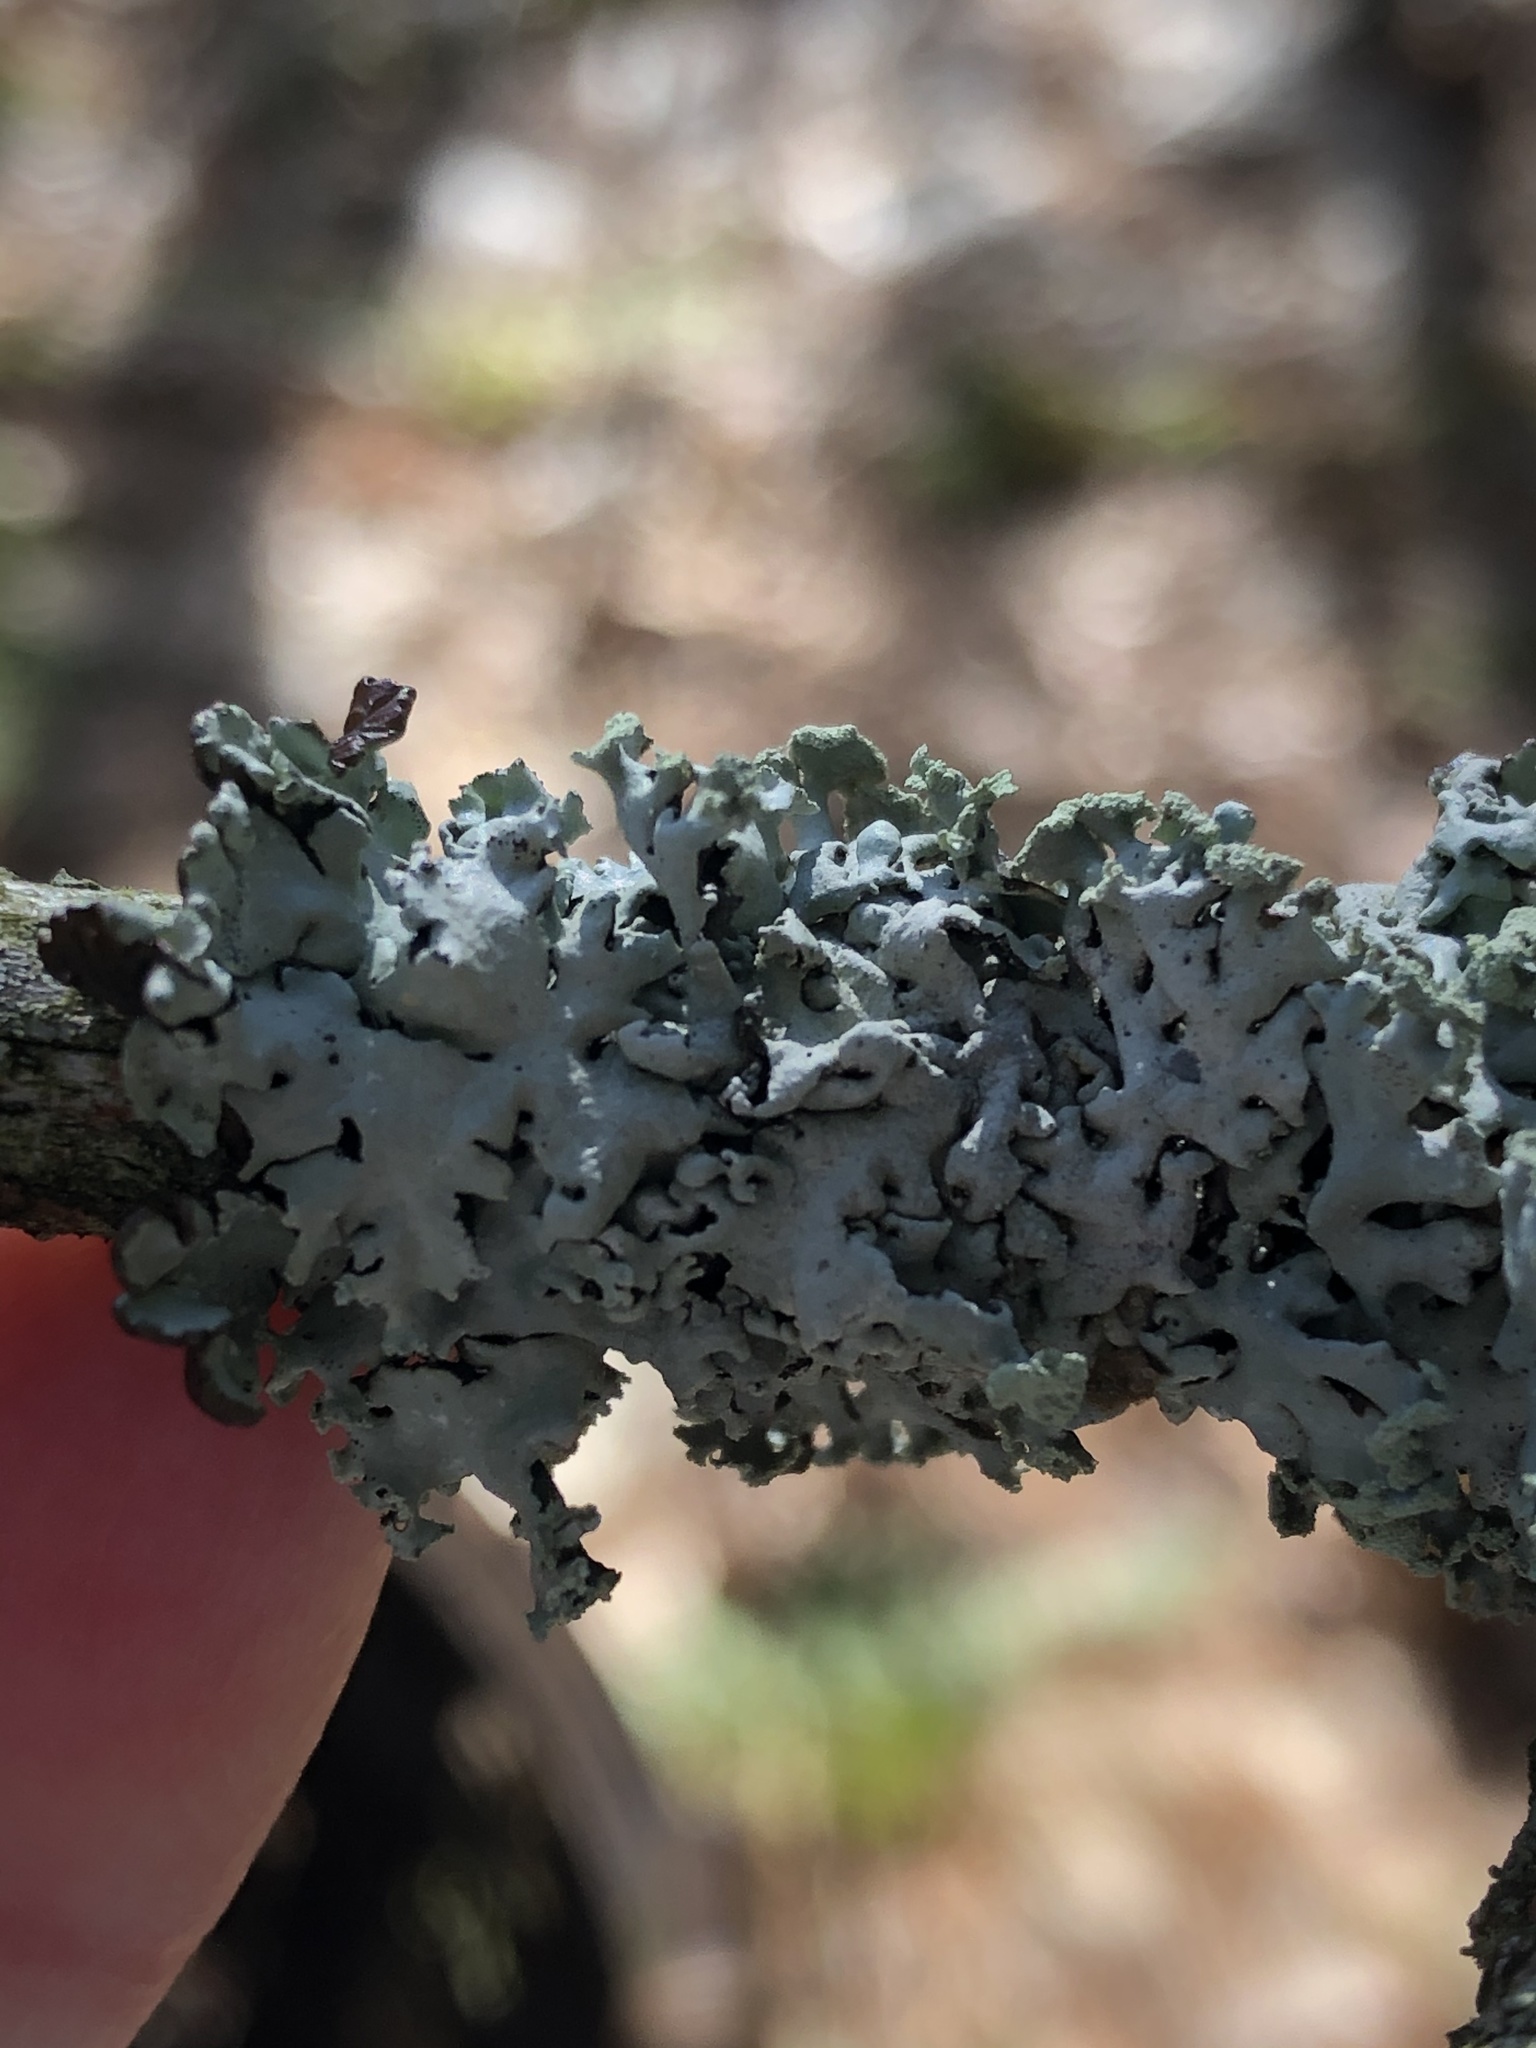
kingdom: Fungi
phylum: Ascomycota
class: Lecanoromycetes
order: Lecanorales
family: Parmeliaceae
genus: Hypogymnia
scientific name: Hypogymnia physodes
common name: Dark crottle
